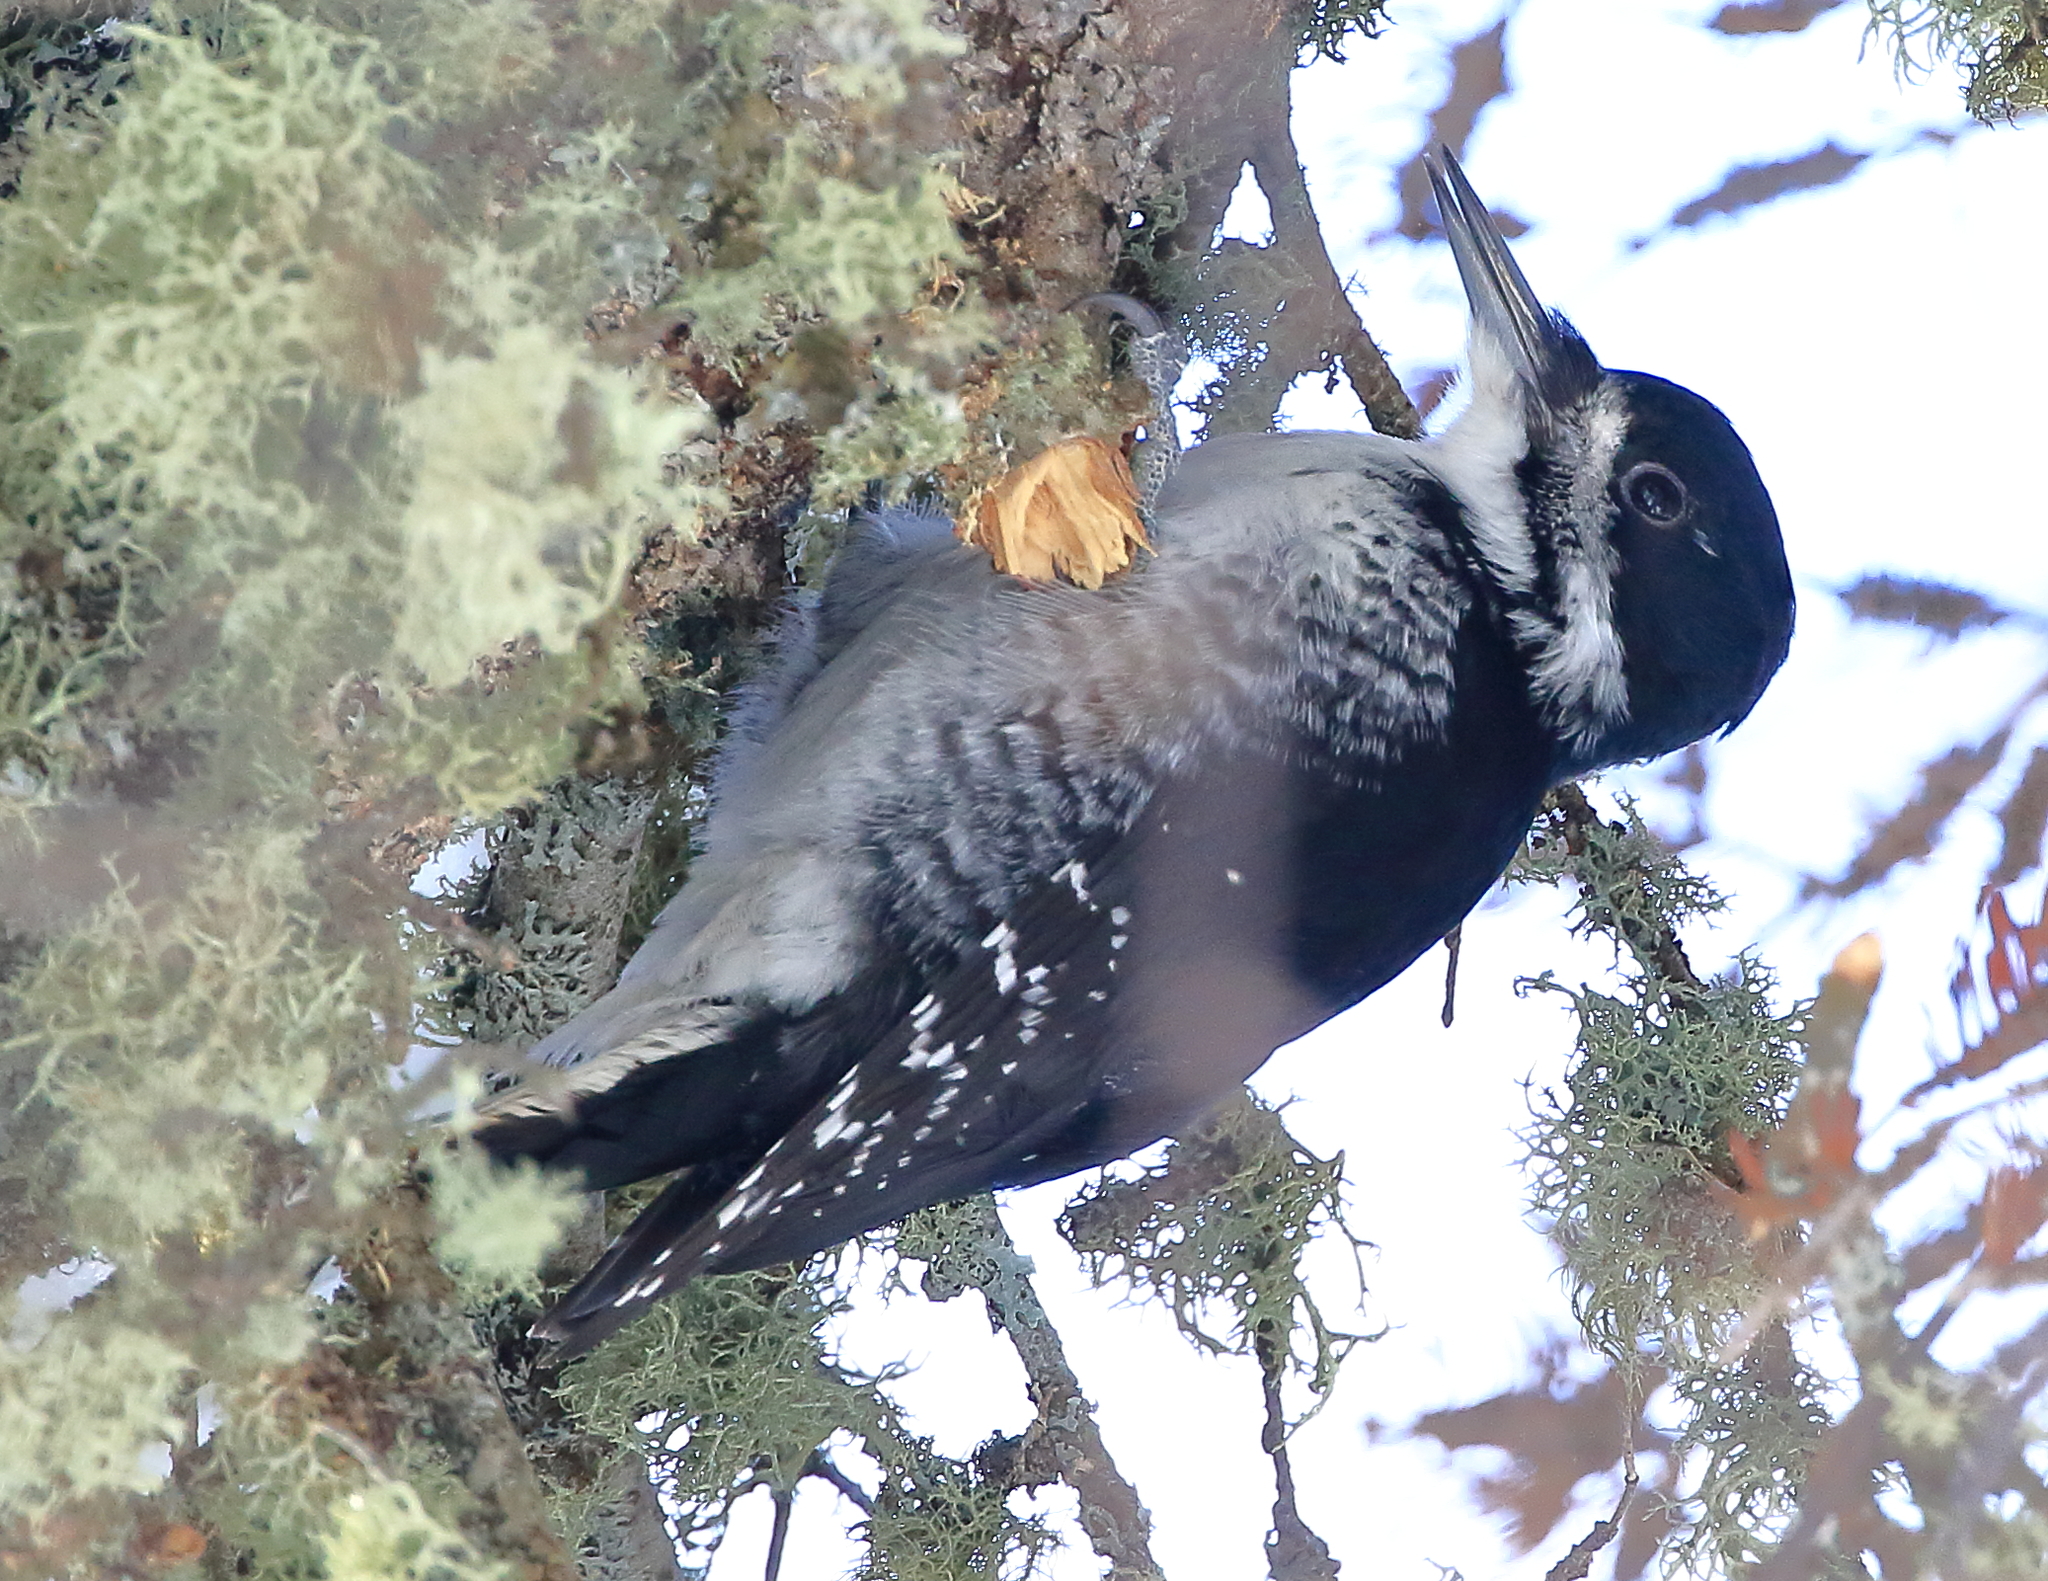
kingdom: Animalia
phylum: Chordata
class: Aves
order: Piciformes
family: Picidae
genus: Picoides
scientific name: Picoides arcticus
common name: Black-backed woodpecker
